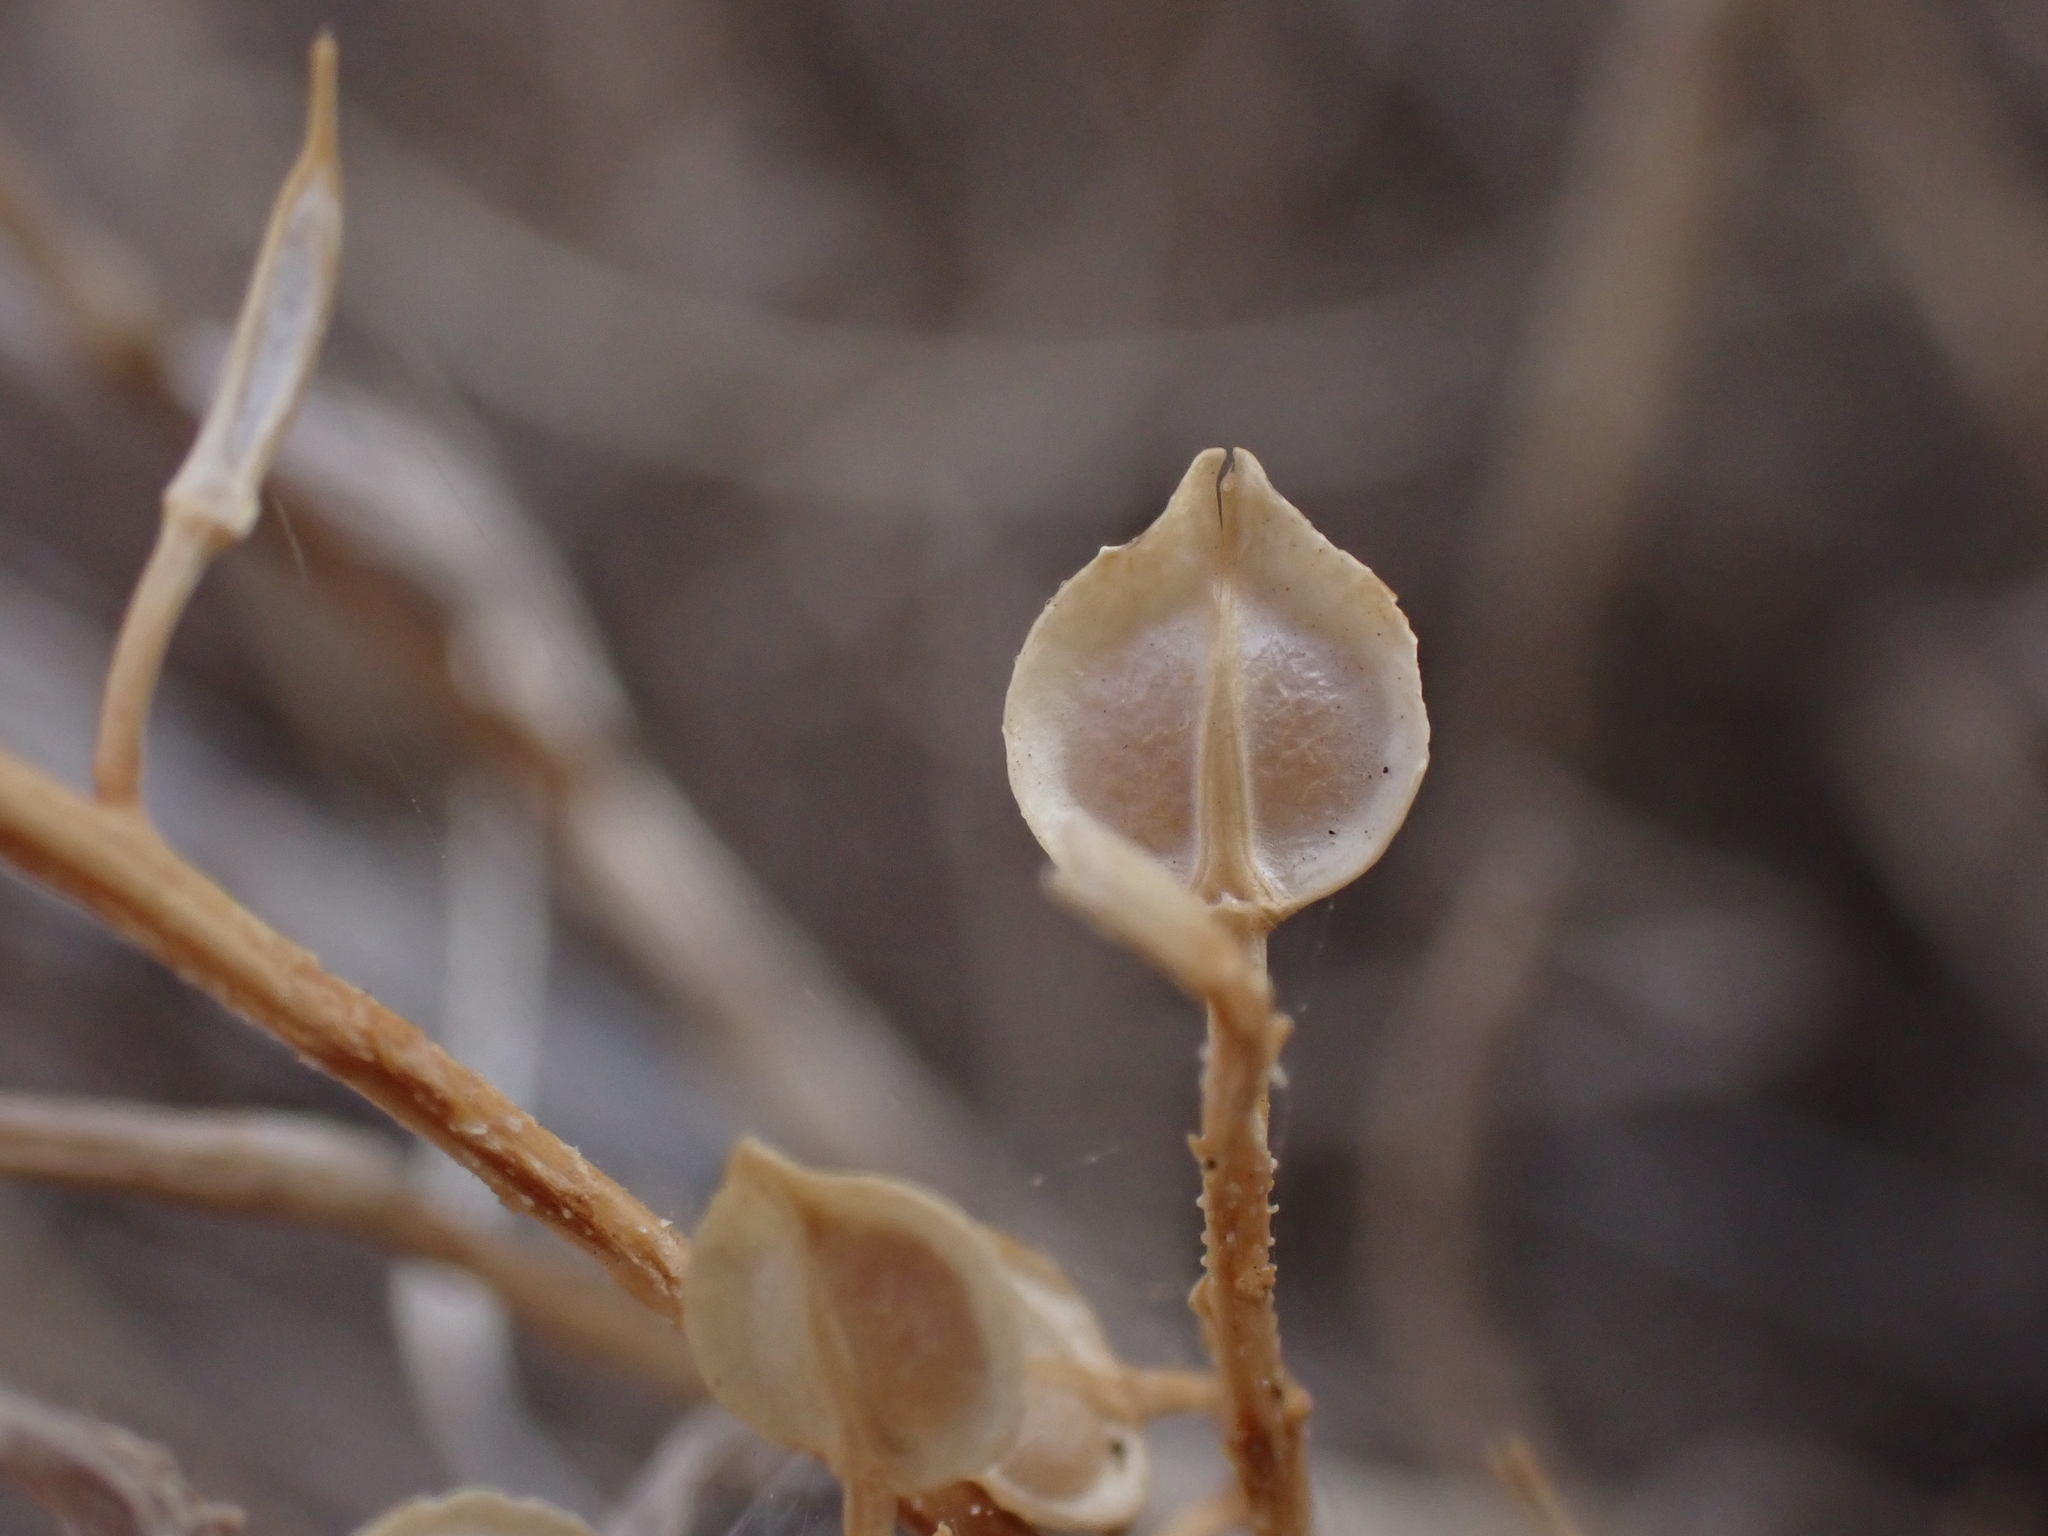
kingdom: Plantae
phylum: Tracheophyta
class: Magnoliopsida
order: Brassicales
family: Brassicaceae
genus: Lepidium
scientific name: Lepidium monoplocoides
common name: Winged pepperwort
